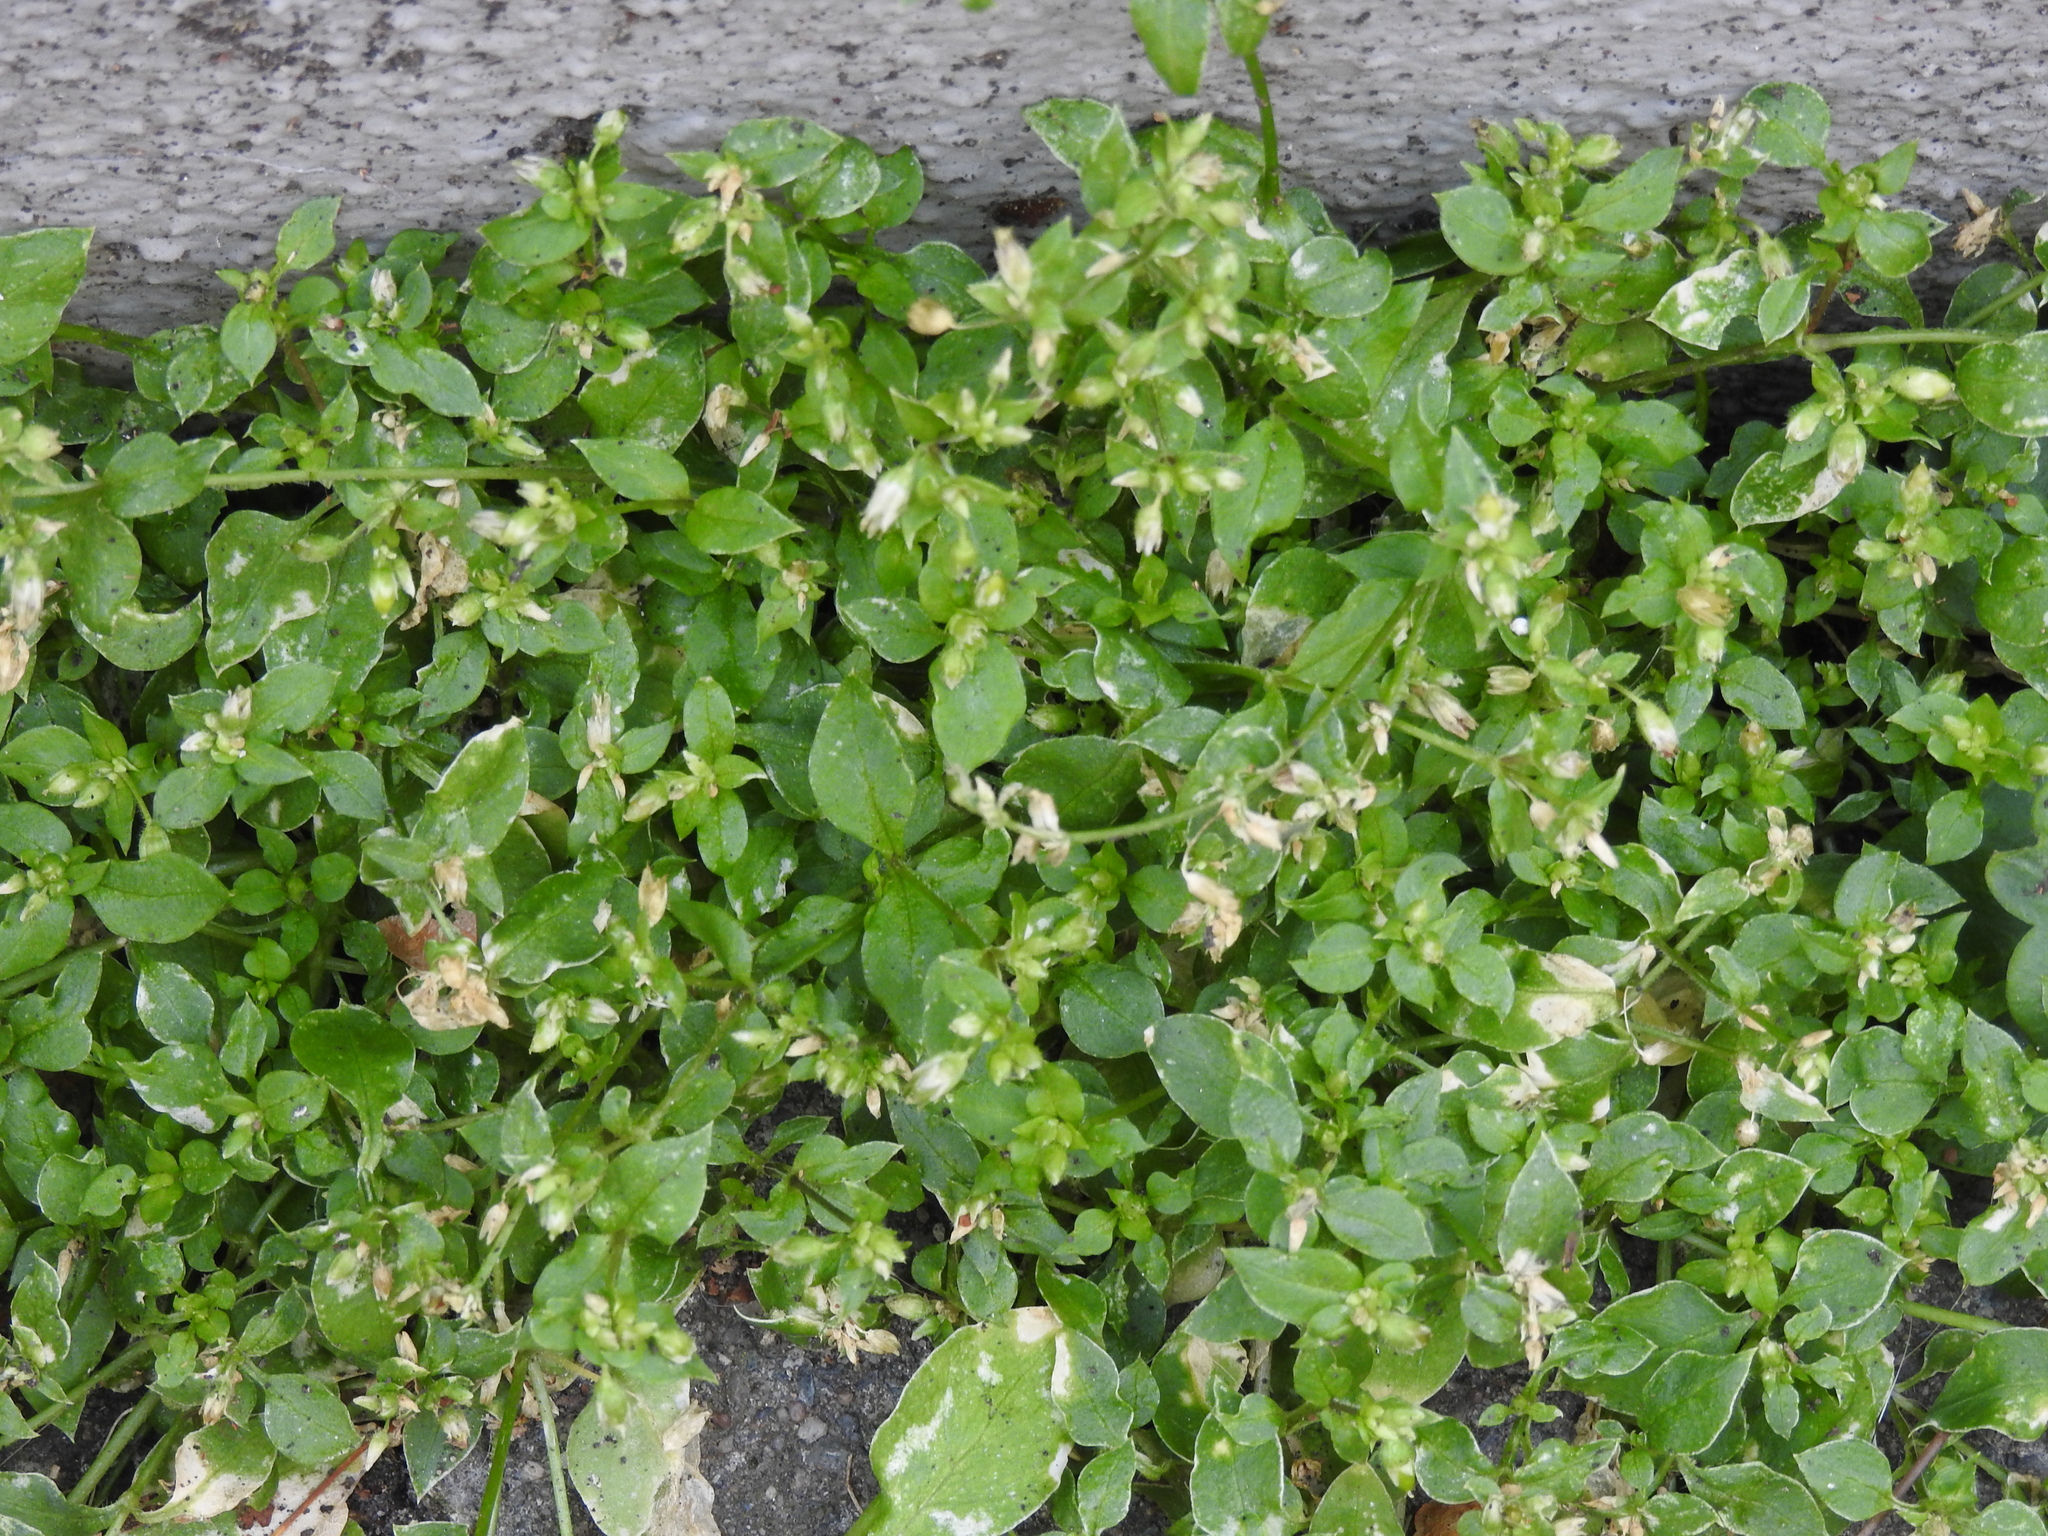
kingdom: Plantae
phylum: Tracheophyta
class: Magnoliopsida
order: Caryophyllales
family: Caryophyllaceae
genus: Stellaria
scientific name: Stellaria media
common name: Common chickweed
